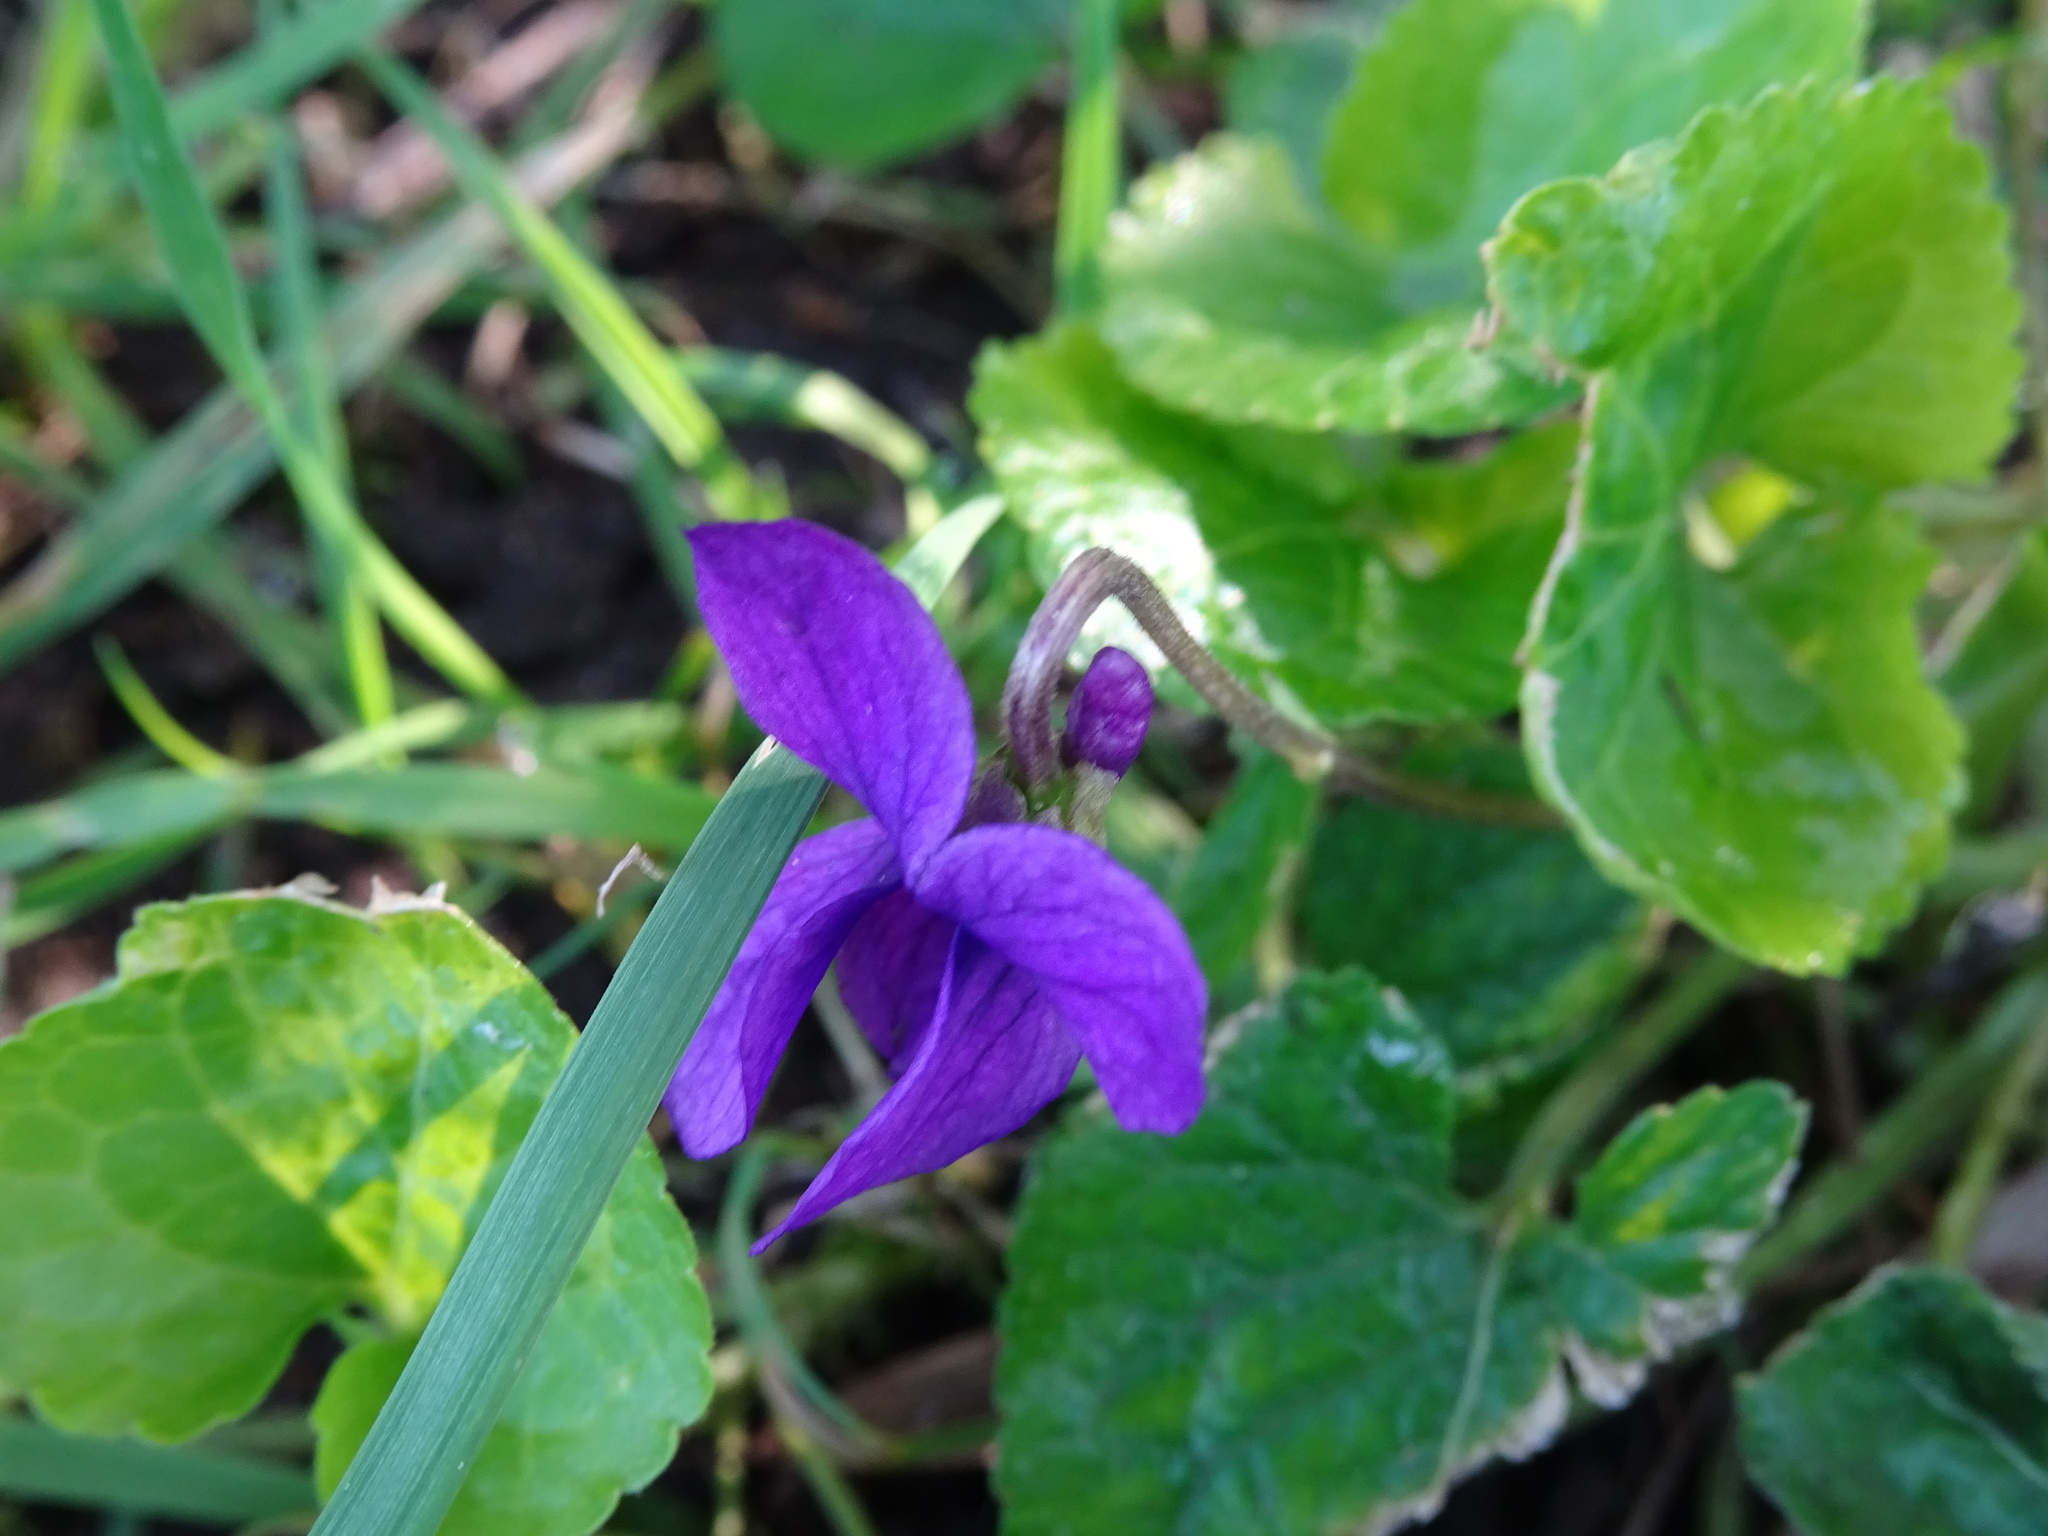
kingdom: Plantae
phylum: Tracheophyta
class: Magnoliopsida
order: Malpighiales
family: Violaceae
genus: Viola
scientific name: Viola odorata
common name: Sweet violet
